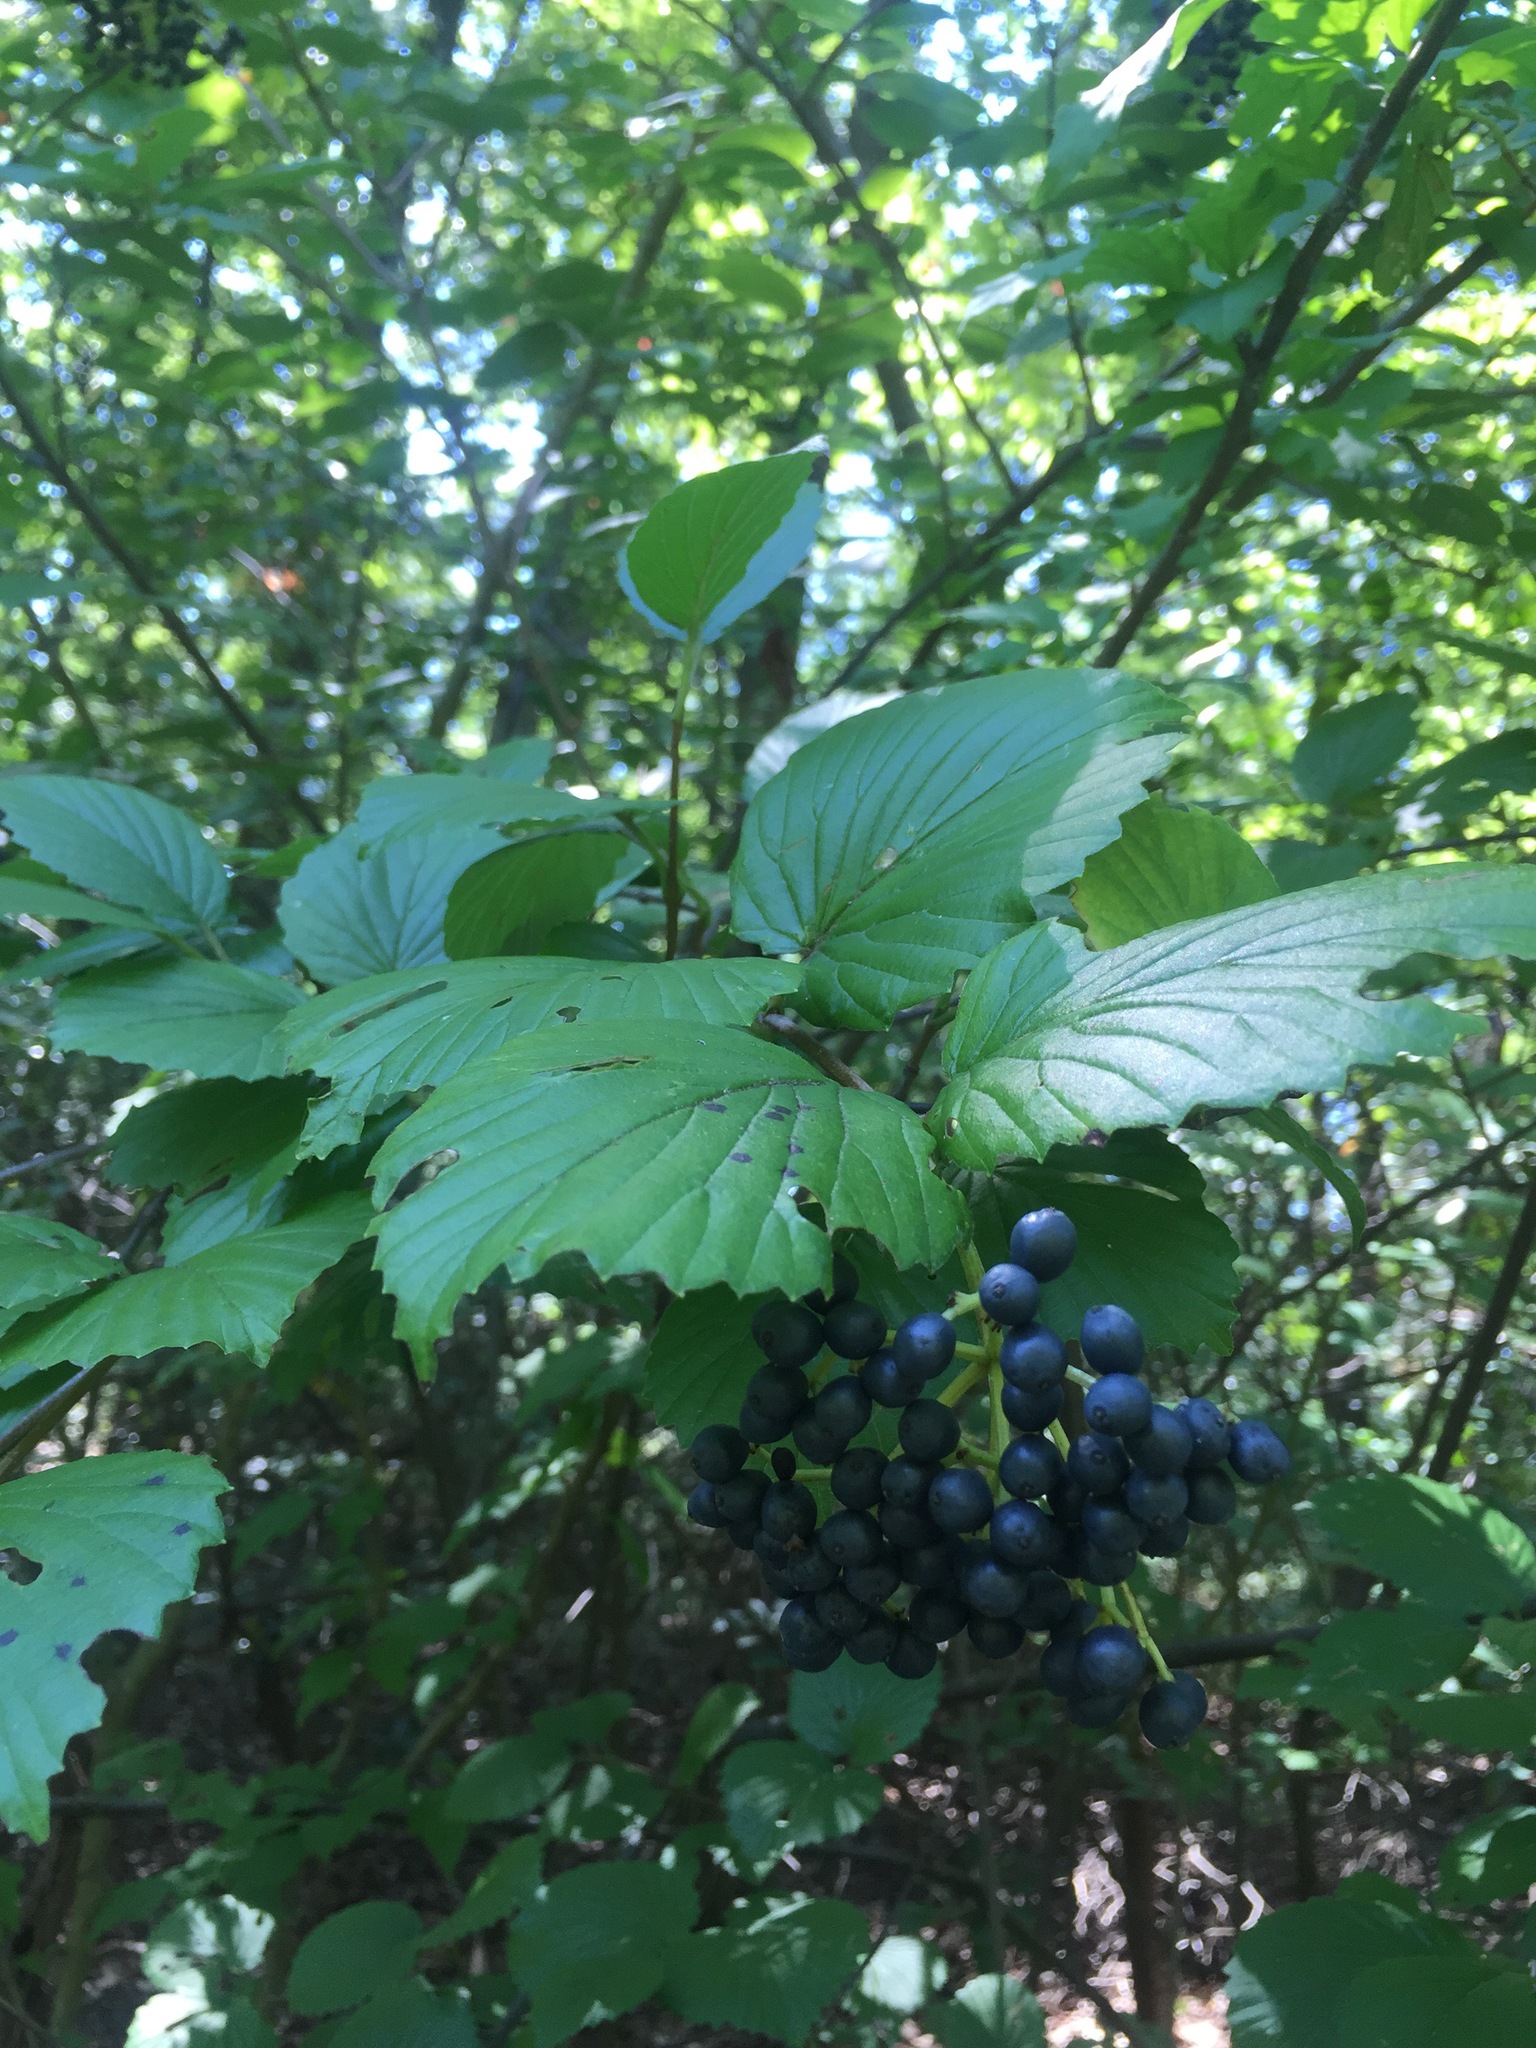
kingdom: Plantae
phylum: Tracheophyta
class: Magnoliopsida
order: Dipsacales
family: Viburnaceae
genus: Viburnum
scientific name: Viburnum dentatum
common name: Arrow-wood
